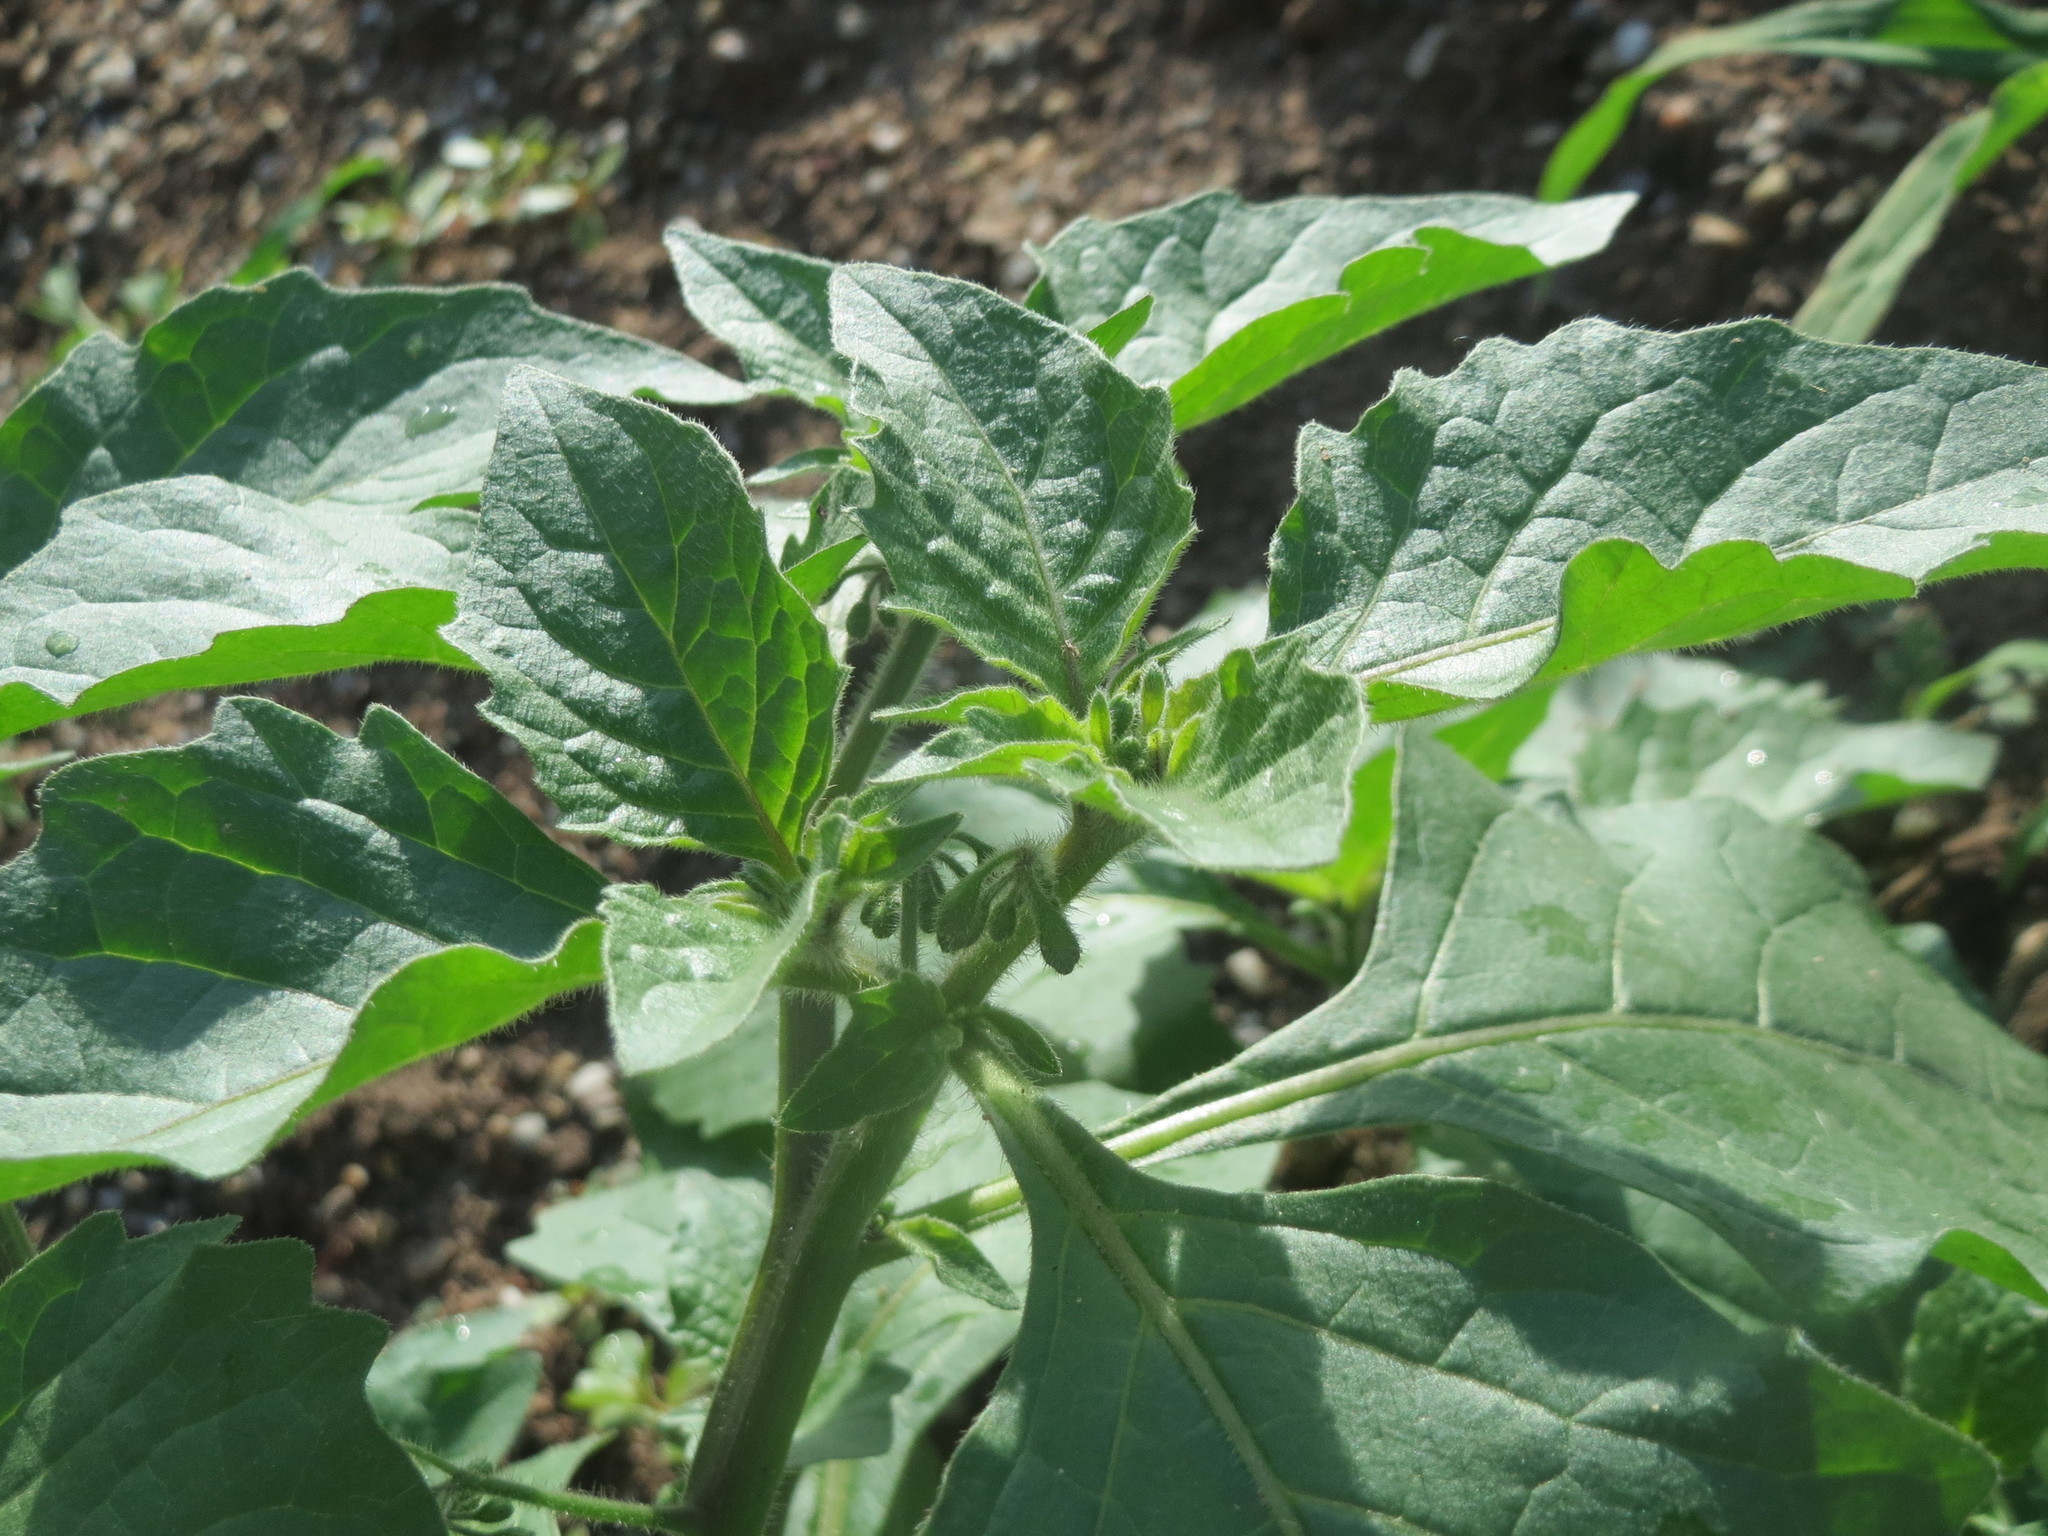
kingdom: Plantae
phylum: Tracheophyta
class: Magnoliopsida
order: Solanales
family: Solanaceae
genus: Solanum
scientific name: Solanum nigrum
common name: Black nightshade
